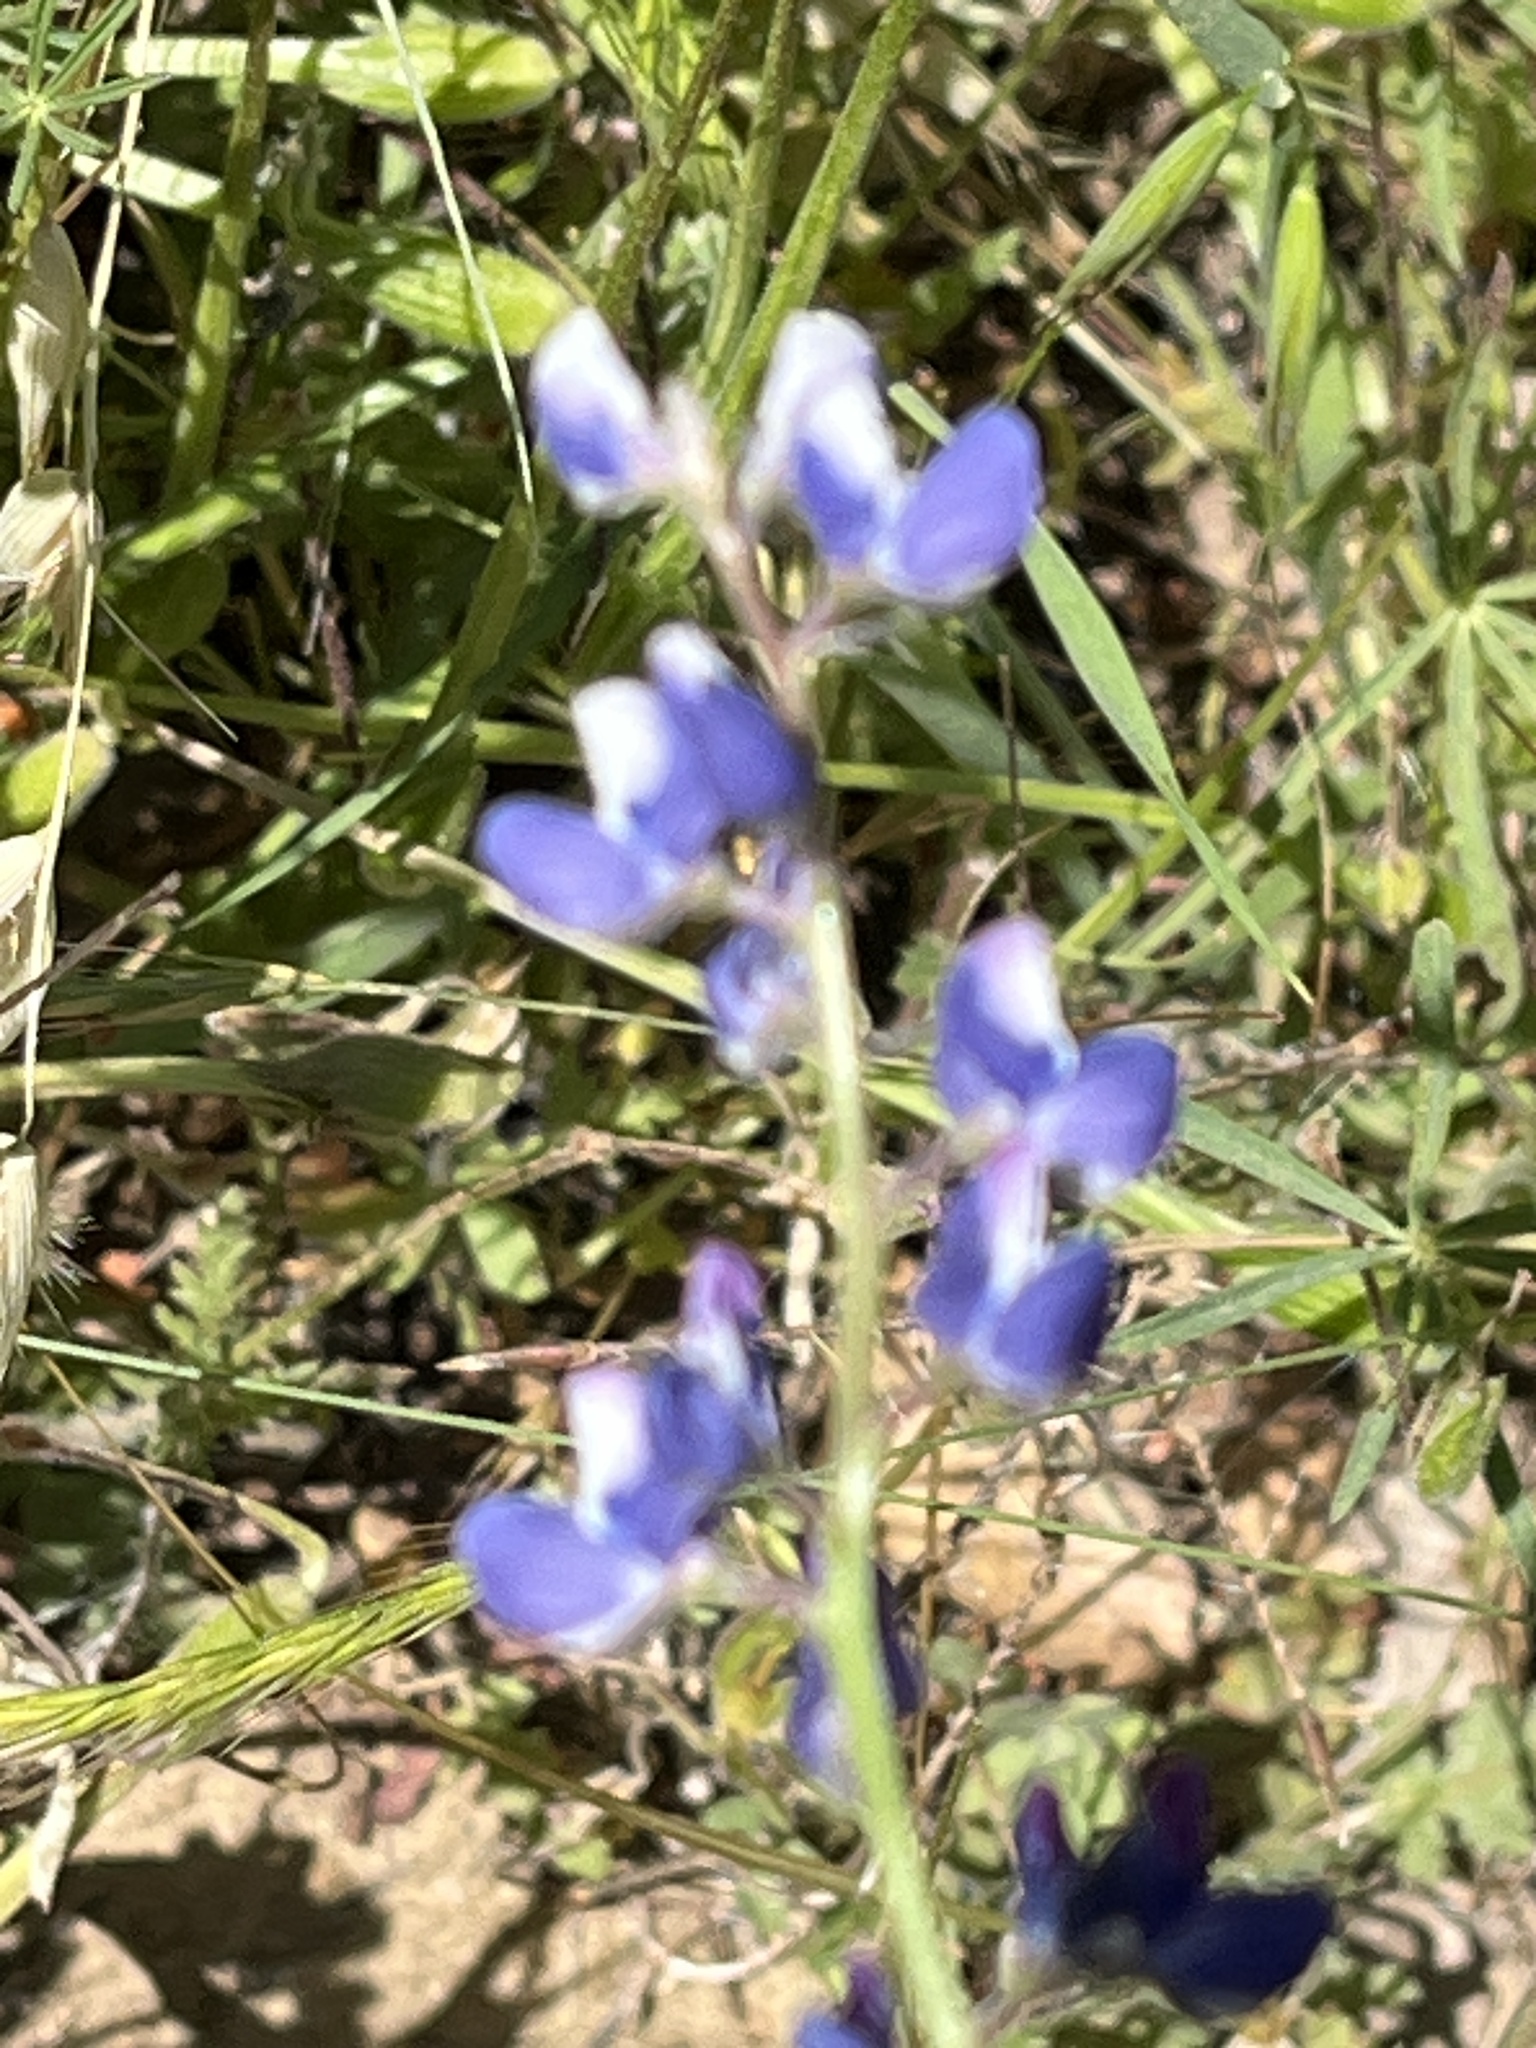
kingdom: Plantae
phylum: Tracheophyta
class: Magnoliopsida
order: Fabales
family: Fabaceae
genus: Lupinus
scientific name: Lupinus bicolor
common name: Miniature lupine
